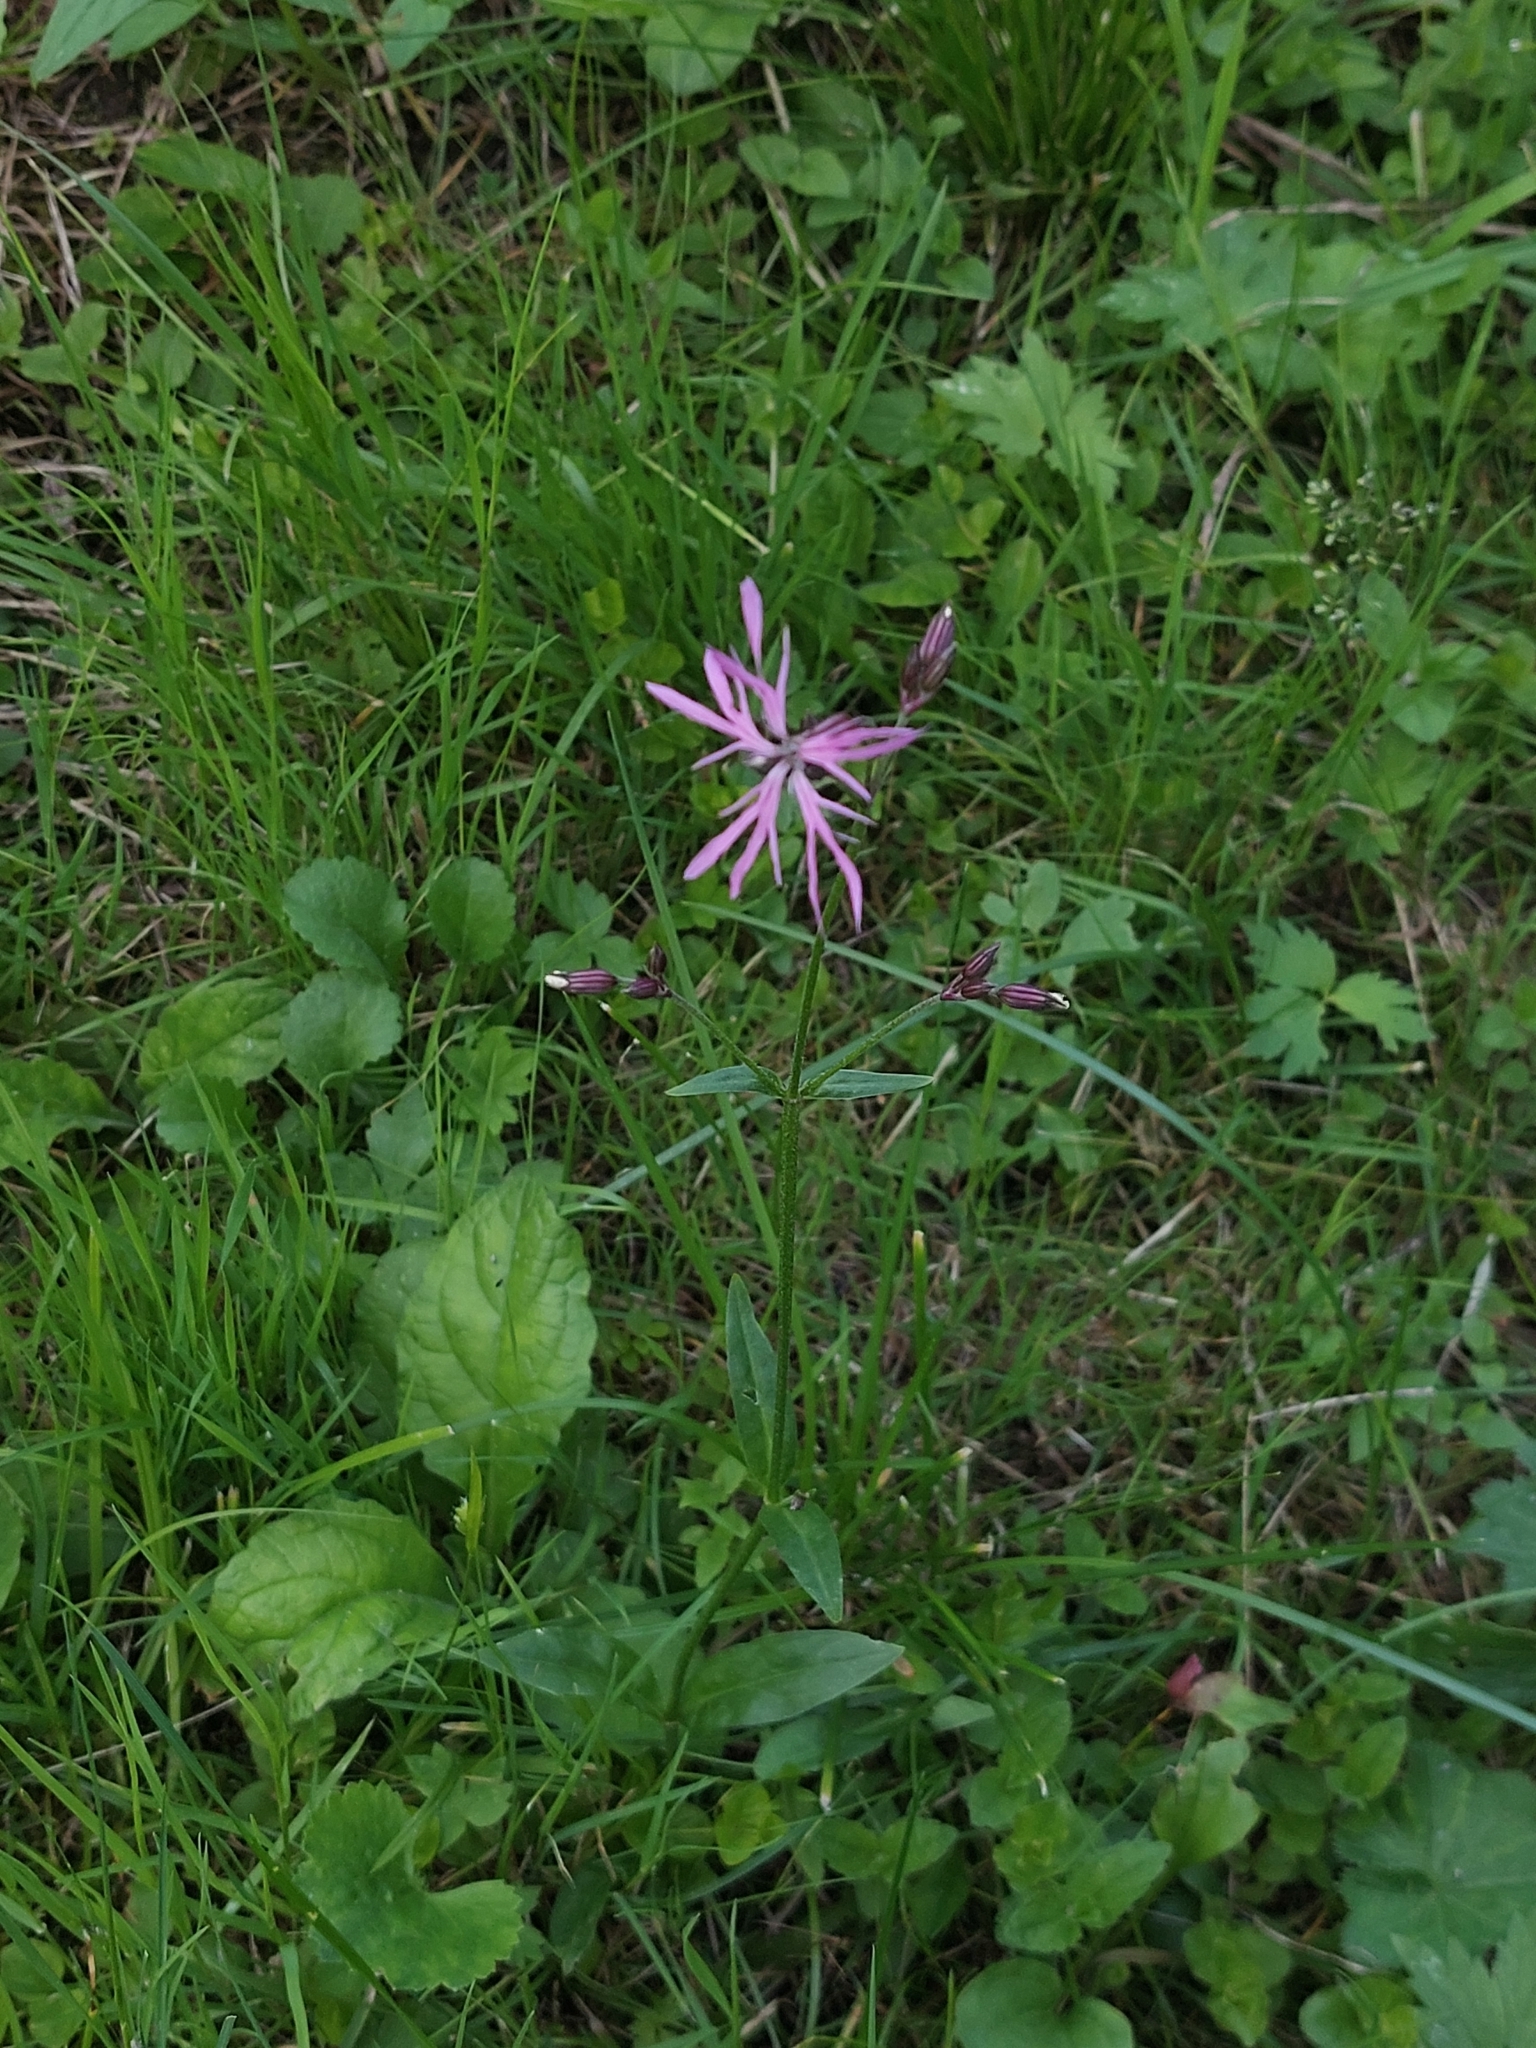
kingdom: Plantae
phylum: Tracheophyta
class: Magnoliopsida
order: Caryophyllales
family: Caryophyllaceae
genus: Silene
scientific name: Silene flos-cuculi
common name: Ragged-robin
